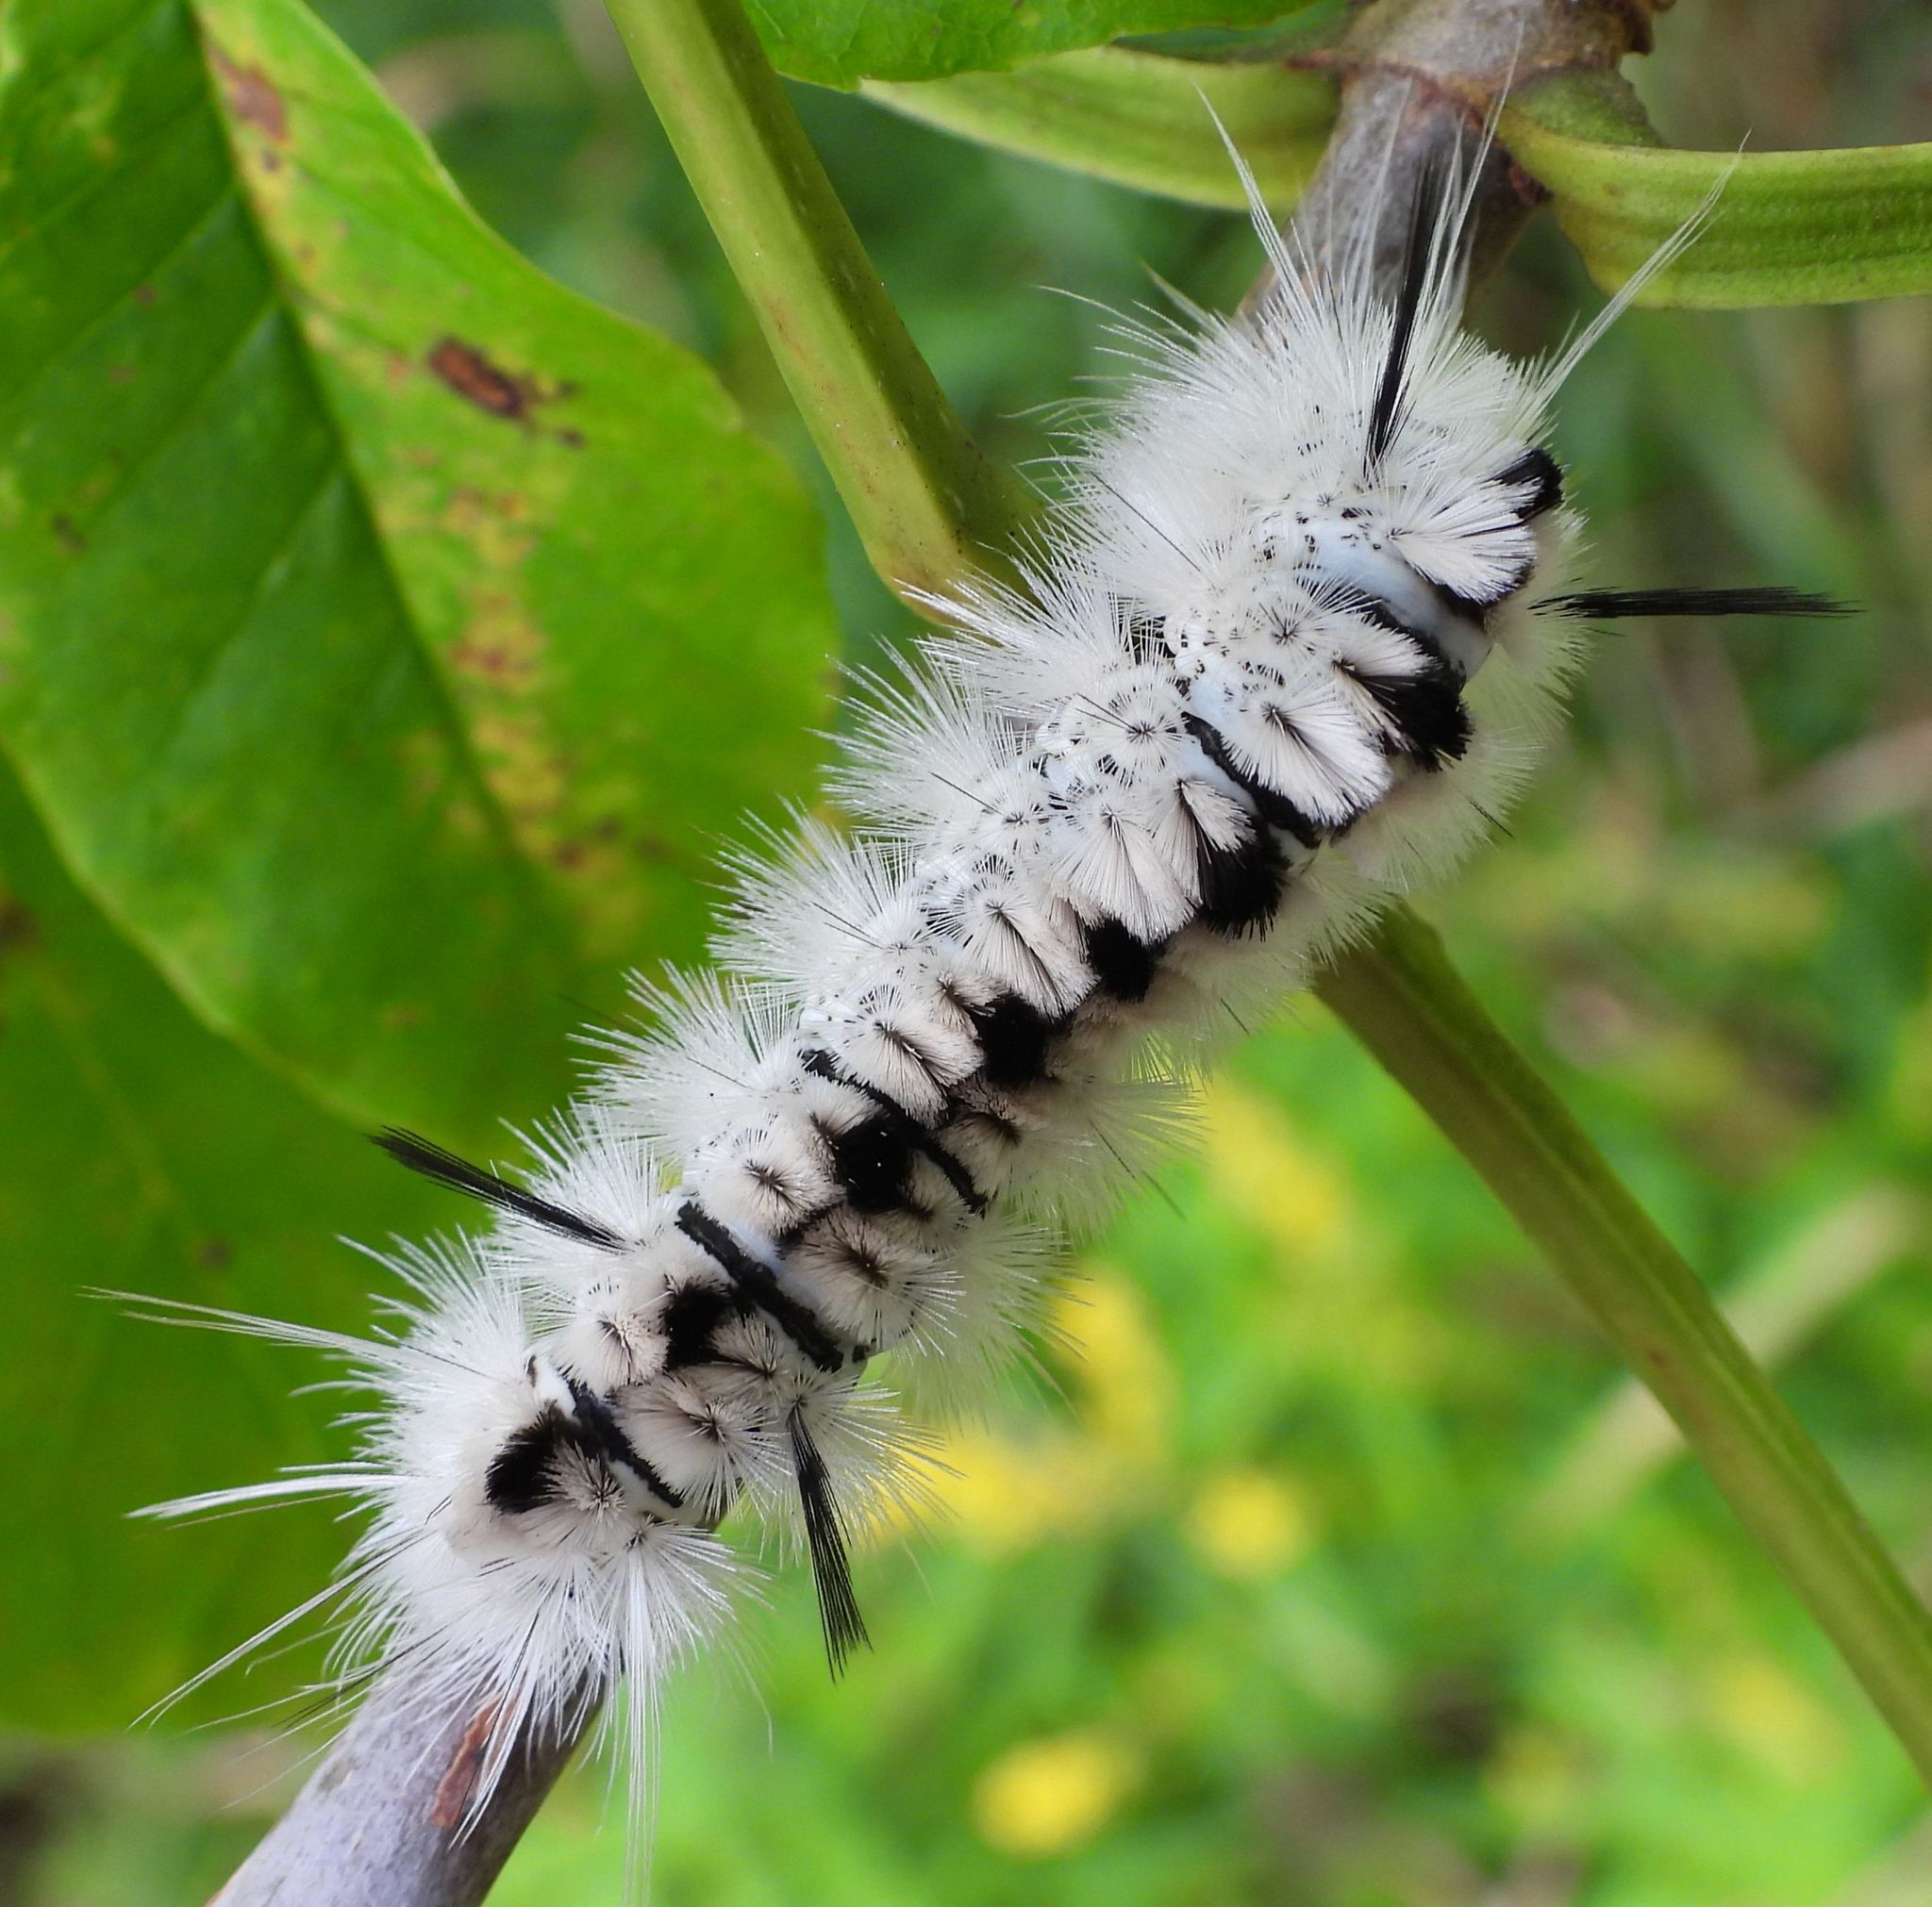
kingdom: Animalia
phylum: Arthropoda
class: Insecta
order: Lepidoptera
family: Erebidae
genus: Lophocampa
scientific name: Lophocampa caryae
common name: Hickory tussock moth
